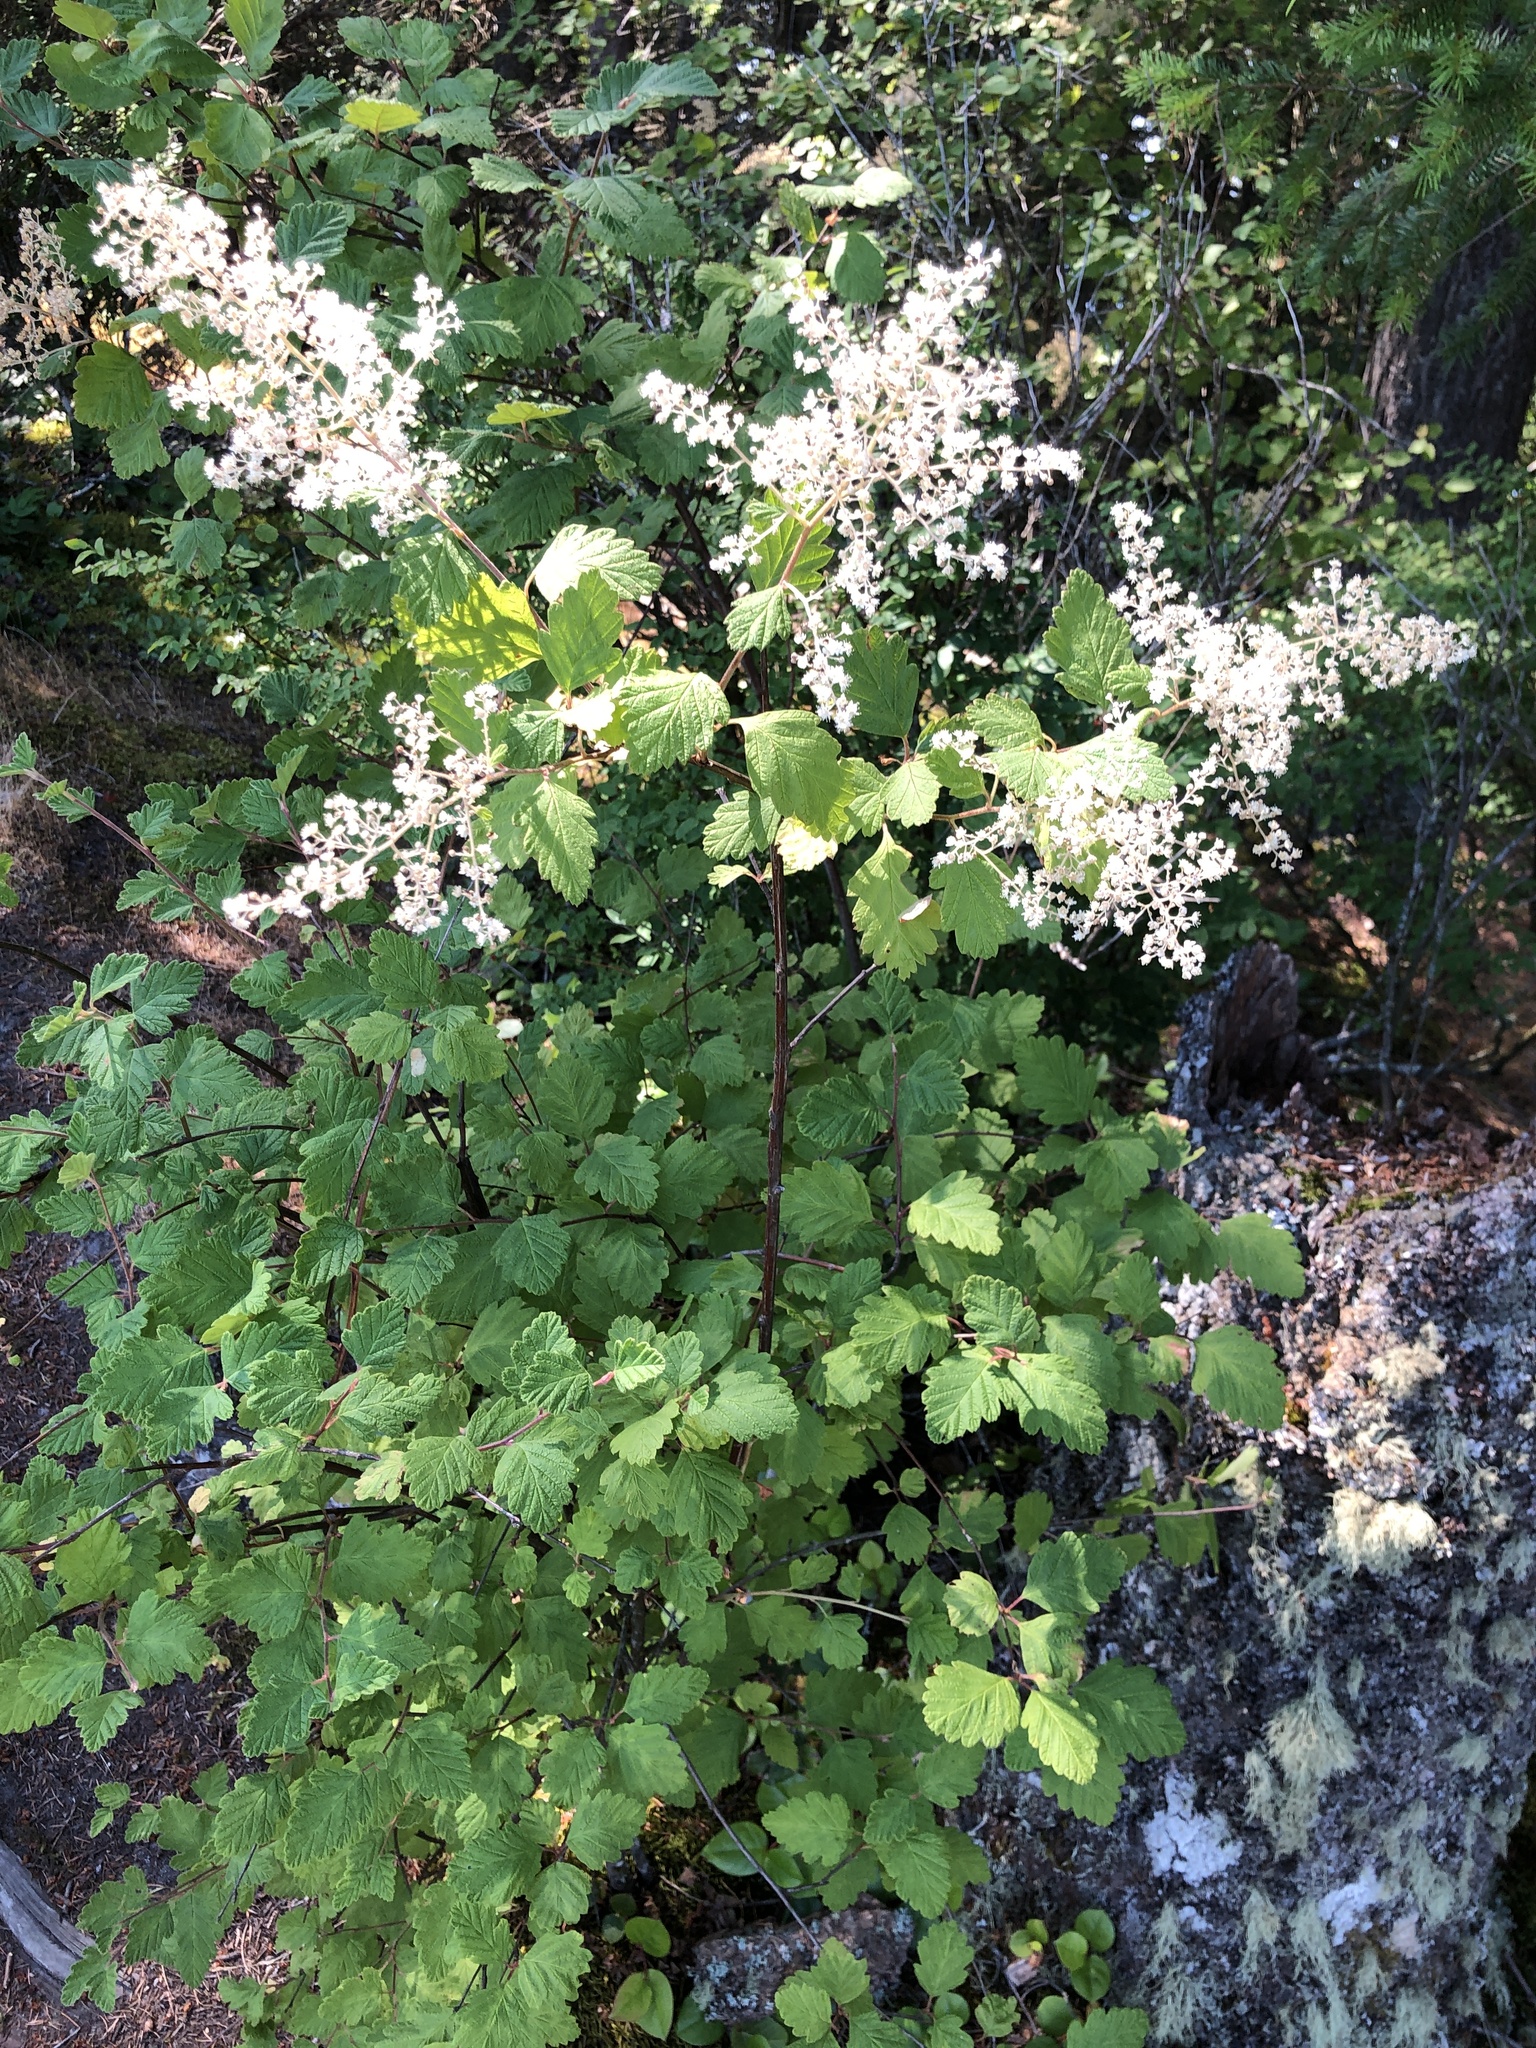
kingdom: Plantae
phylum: Tracheophyta
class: Magnoliopsida
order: Rosales
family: Rosaceae
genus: Holodiscus
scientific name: Holodiscus discolor
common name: Oceanspray
